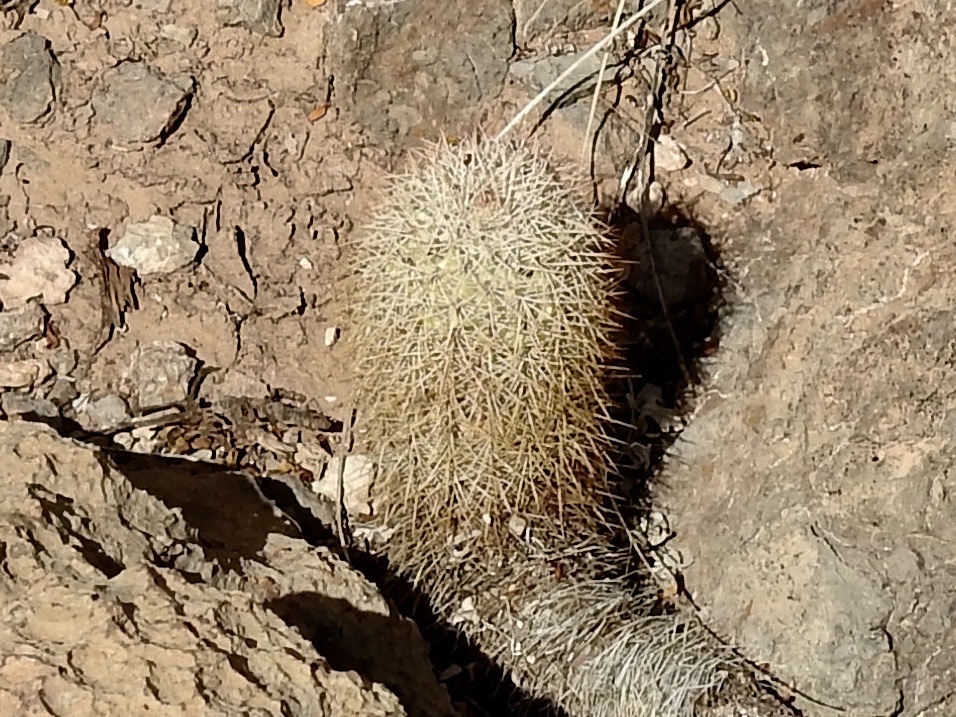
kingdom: Plantae
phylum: Tracheophyta
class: Magnoliopsida
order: Caryophyllales
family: Cactaceae
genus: Echinocereus
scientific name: Echinocereus dasyacanthus
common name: Spiny hedgehog cactus
